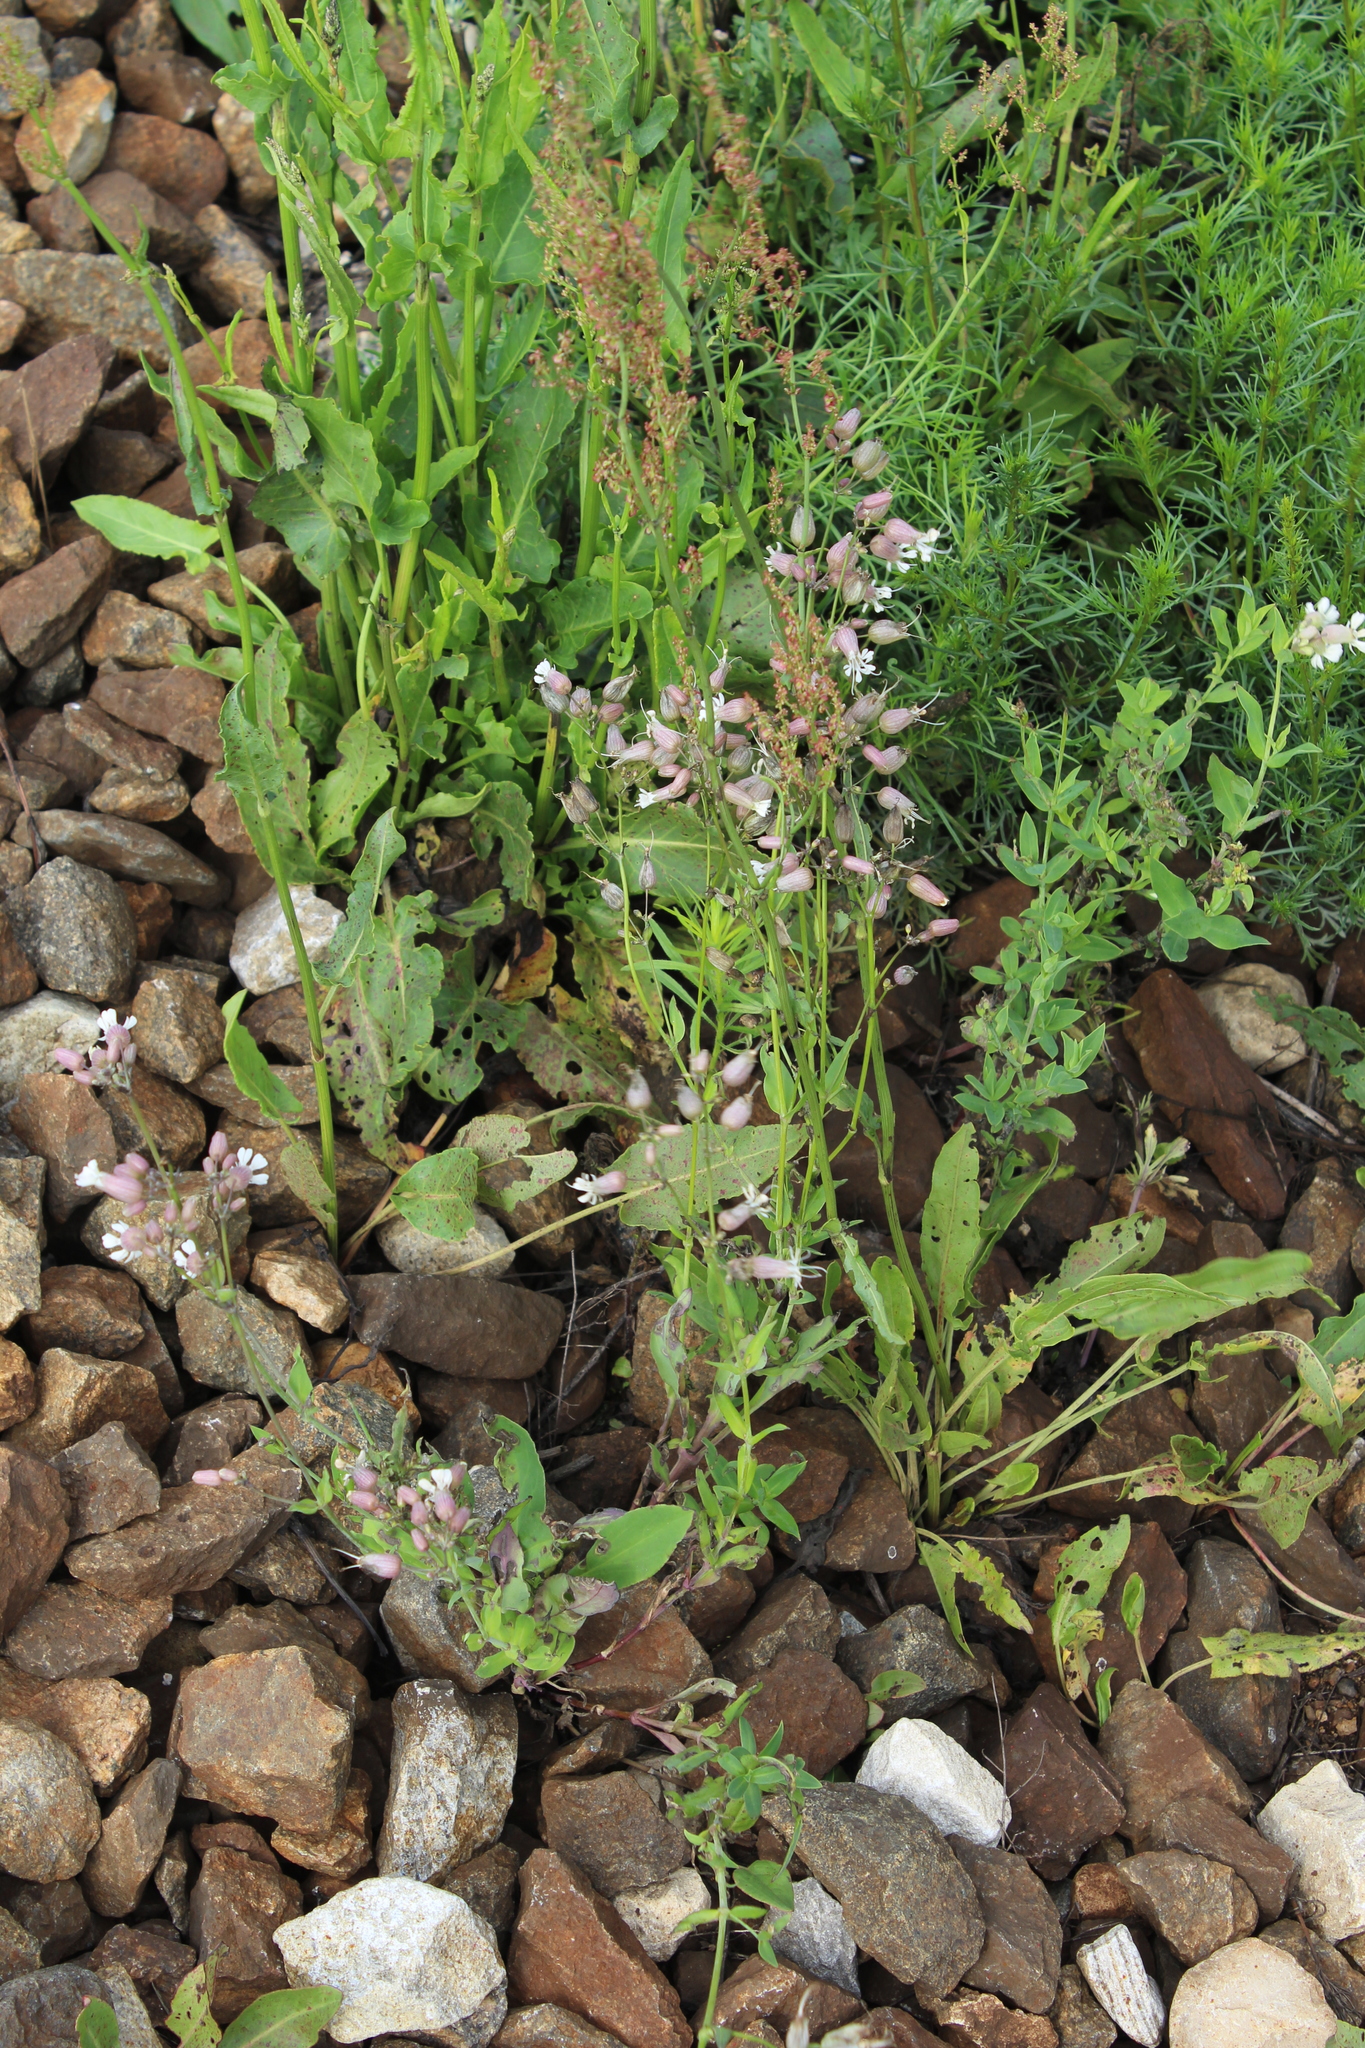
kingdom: Plantae
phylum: Tracheophyta
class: Magnoliopsida
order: Caryophyllales
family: Caryophyllaceae
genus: Silene
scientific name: Silene vulgaris
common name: Bladder campion
